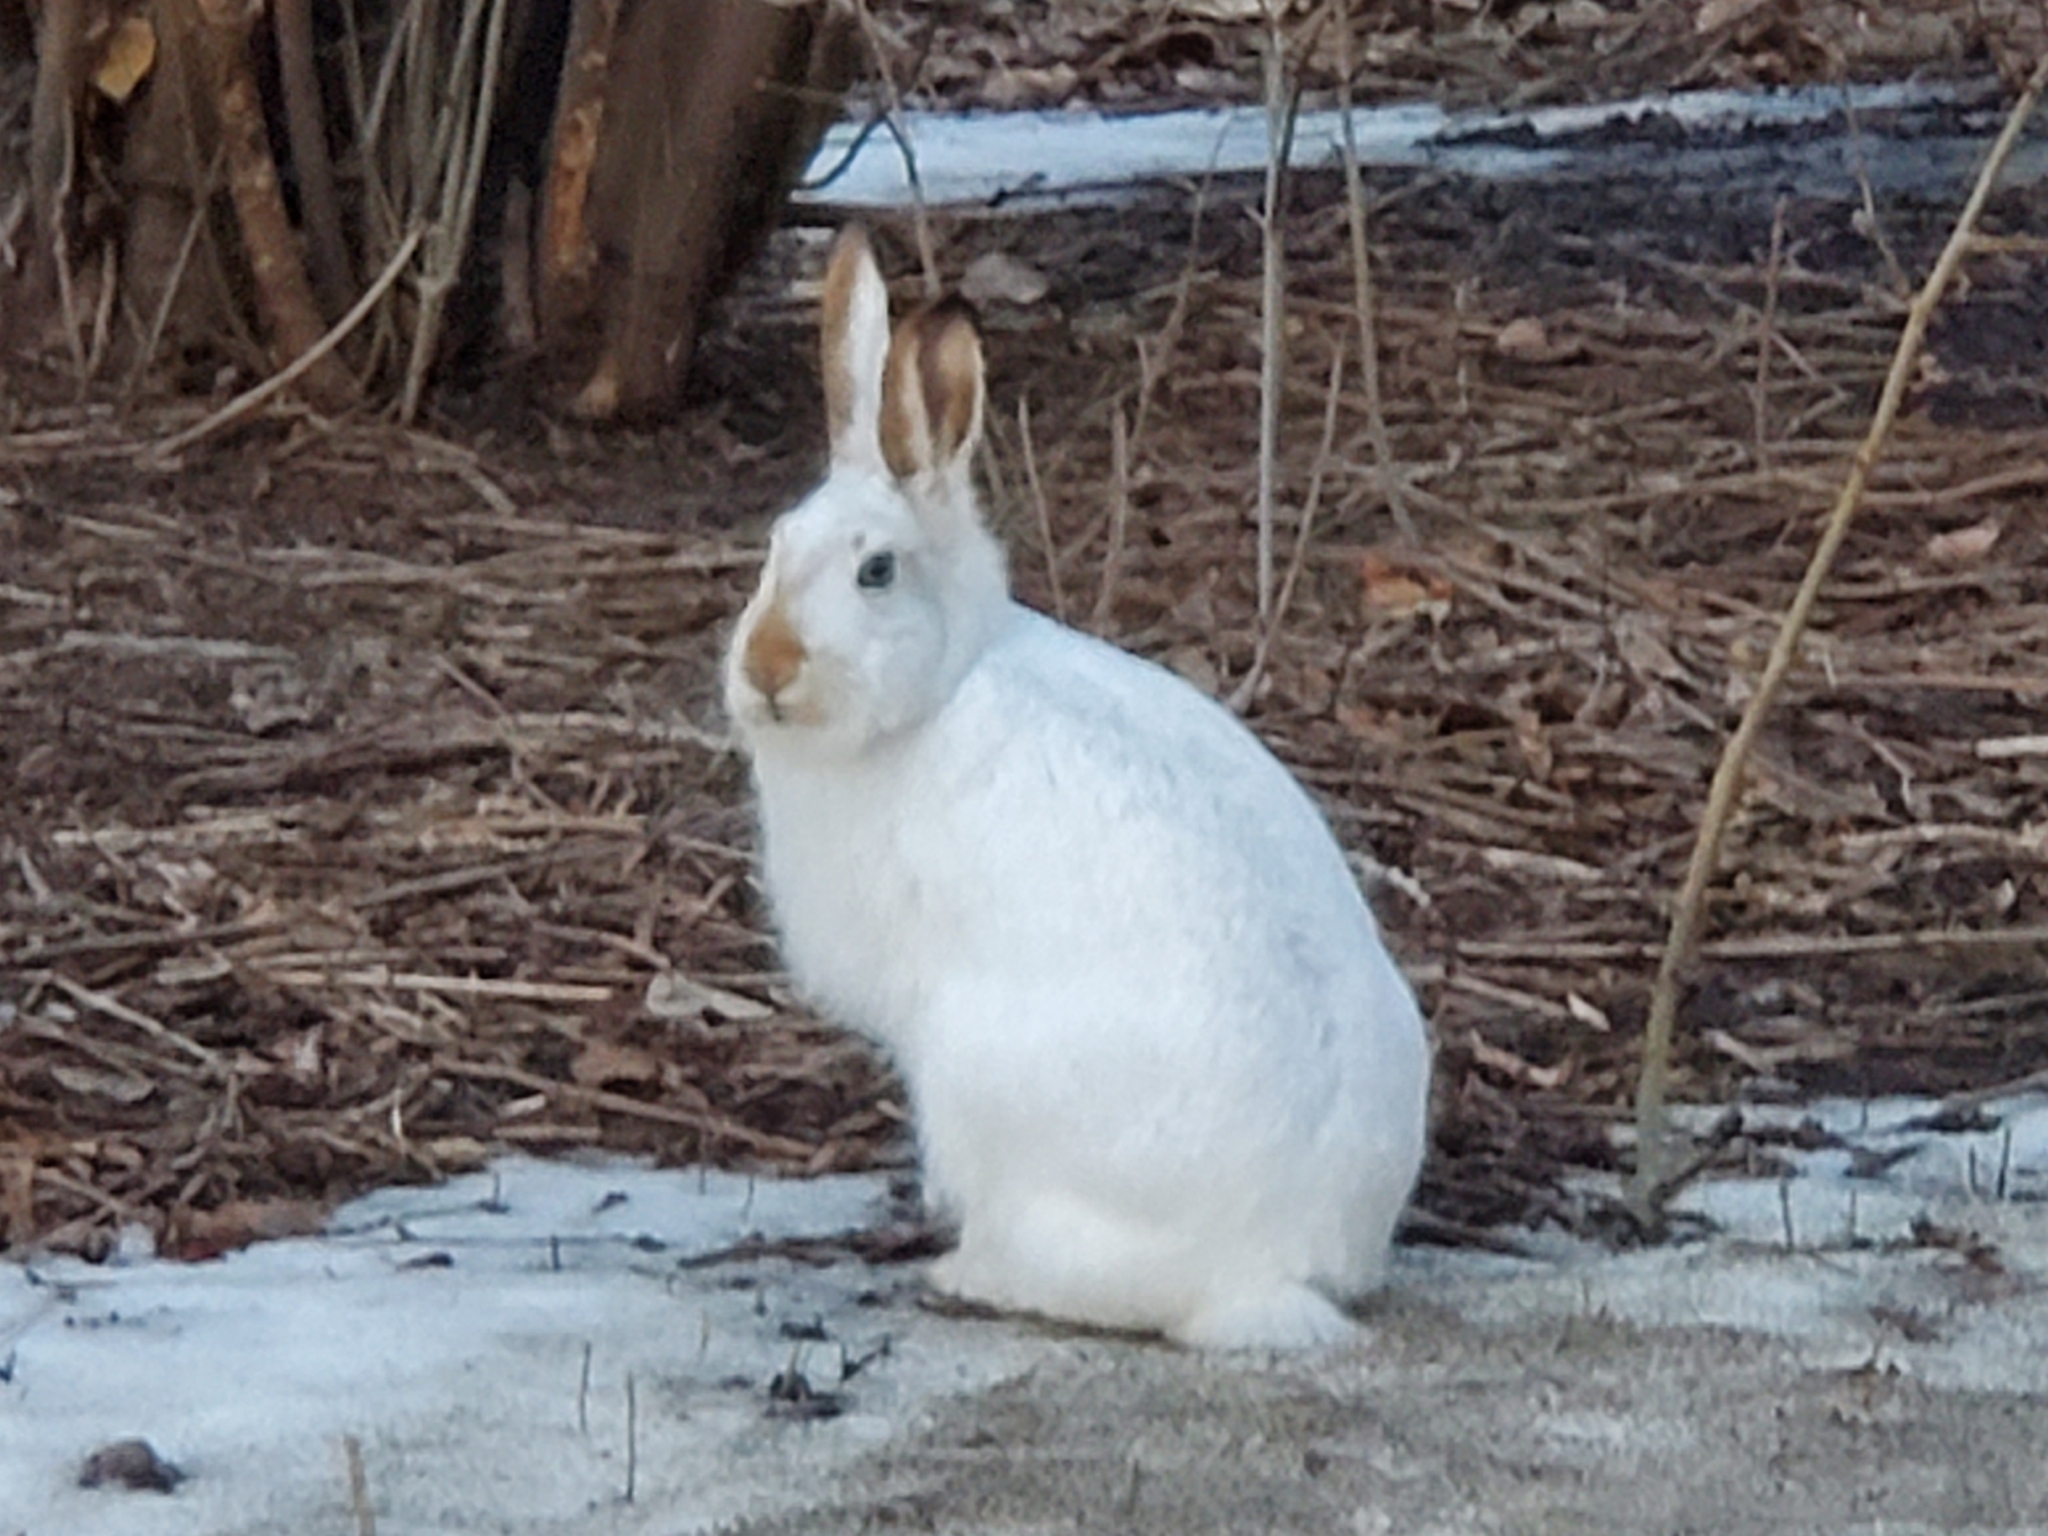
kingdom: Animalia
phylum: Chordata
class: Mammalia
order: Lagomorpha
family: Leporidae
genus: Lepus
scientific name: Lepus townsendii
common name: White-tailed jackrabbit
